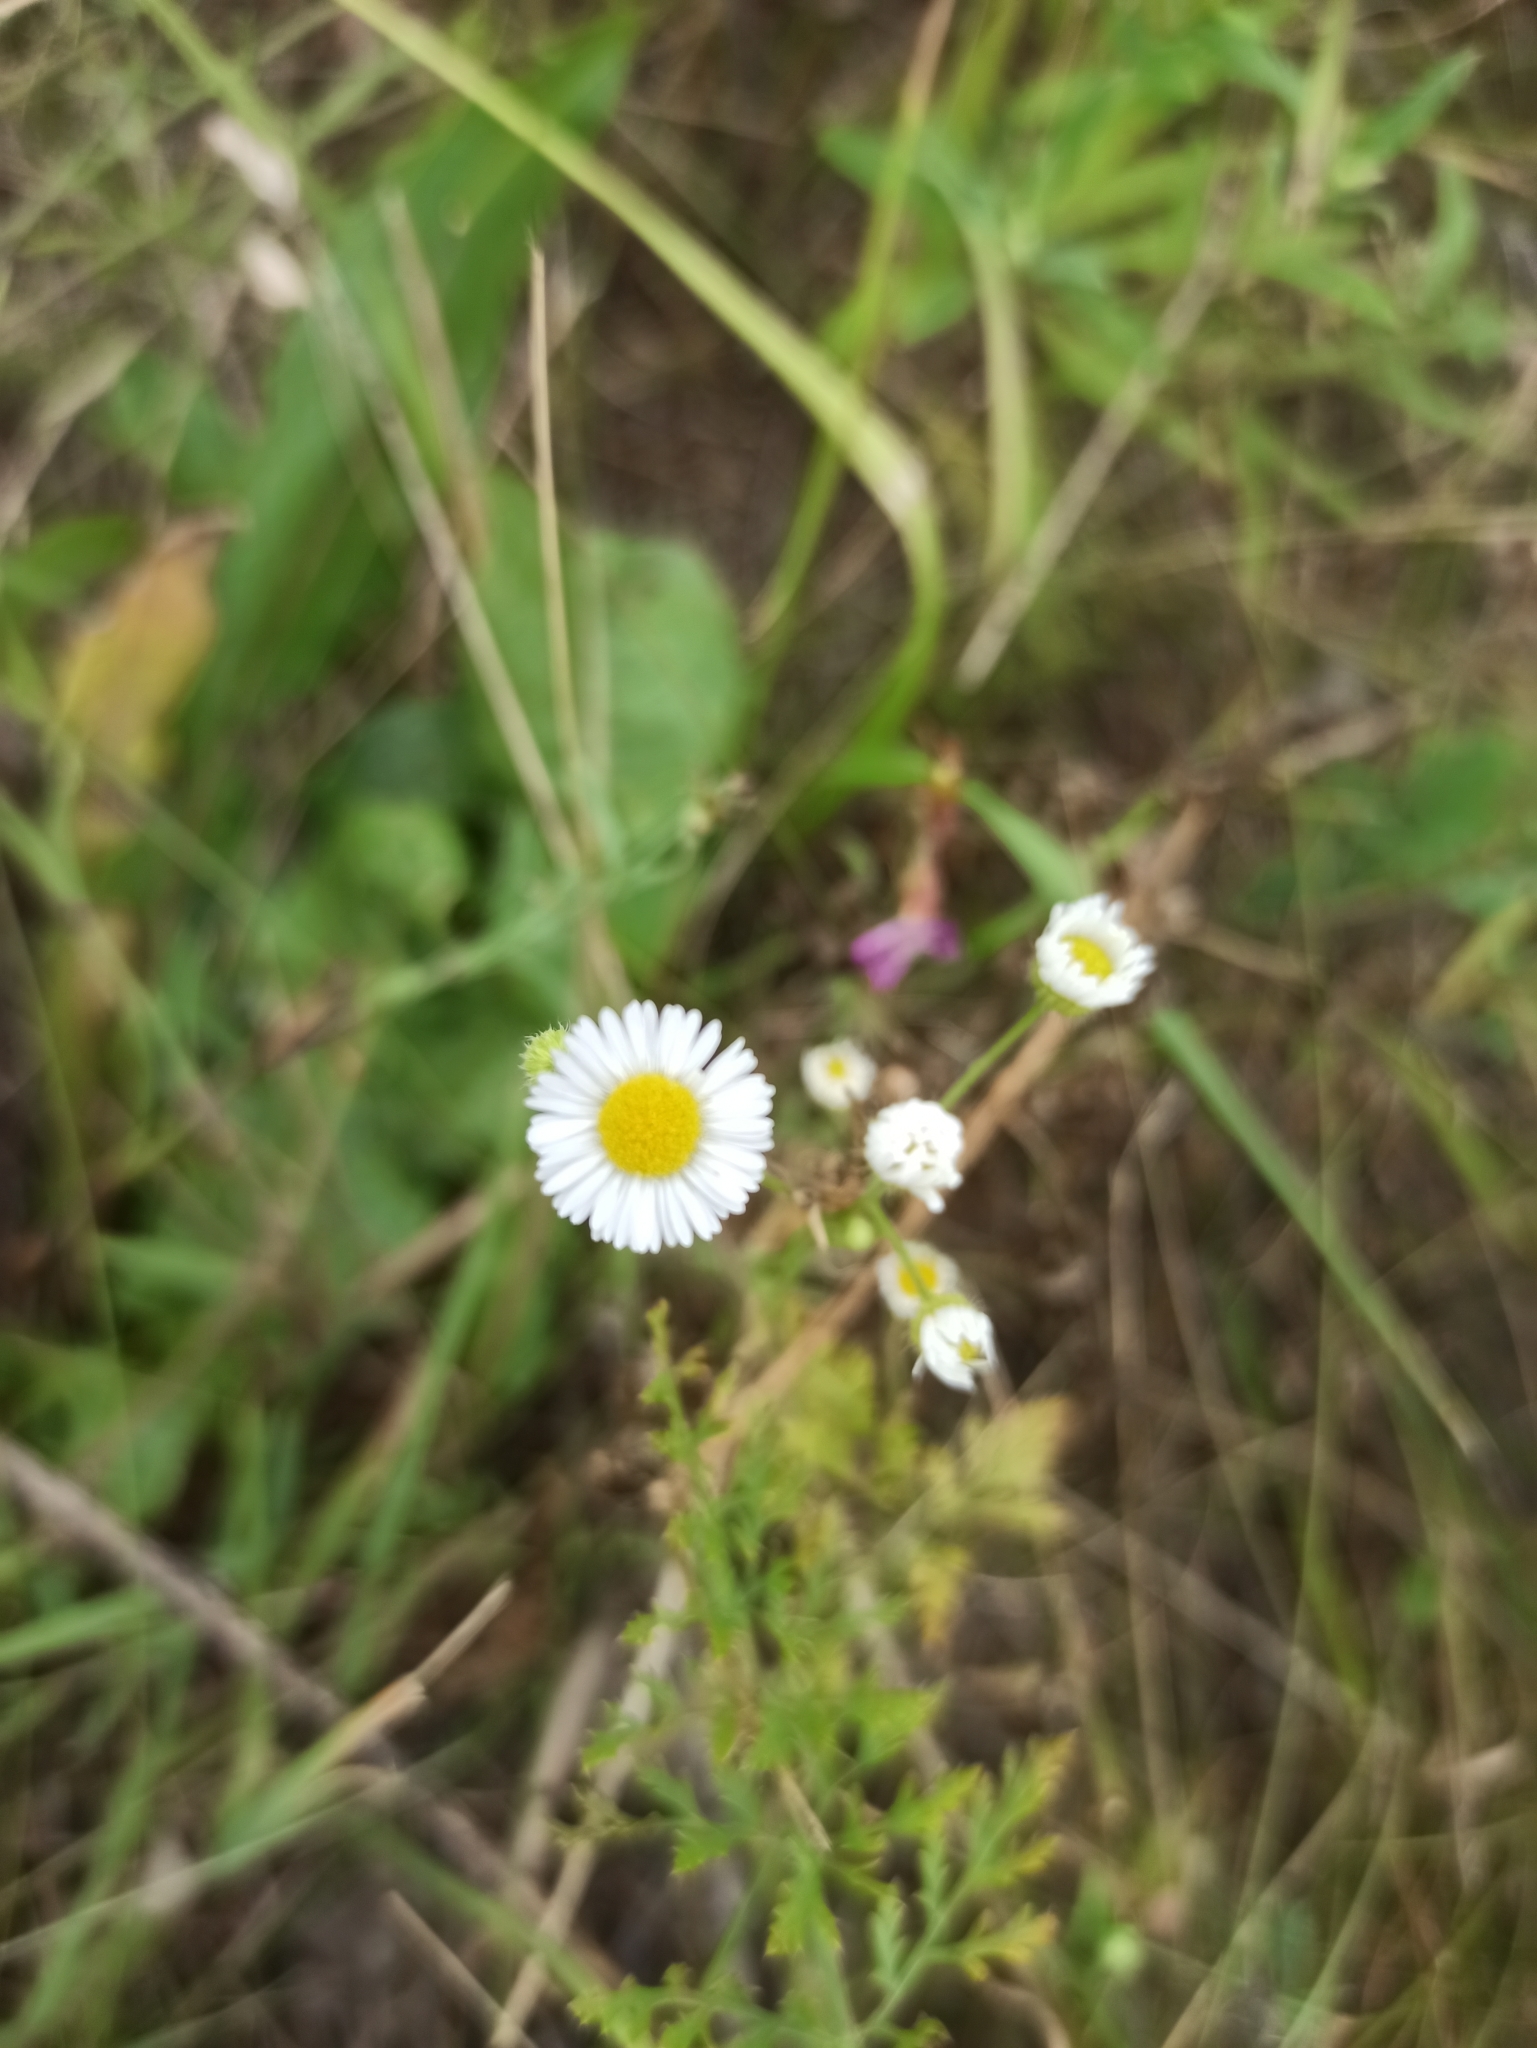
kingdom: Plantae
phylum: Tracheophyta
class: Magnoliopsida
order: Asterales
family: Asteraceae
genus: Erigeron
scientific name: Erigeron strigosus
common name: Common eastern fleabane
